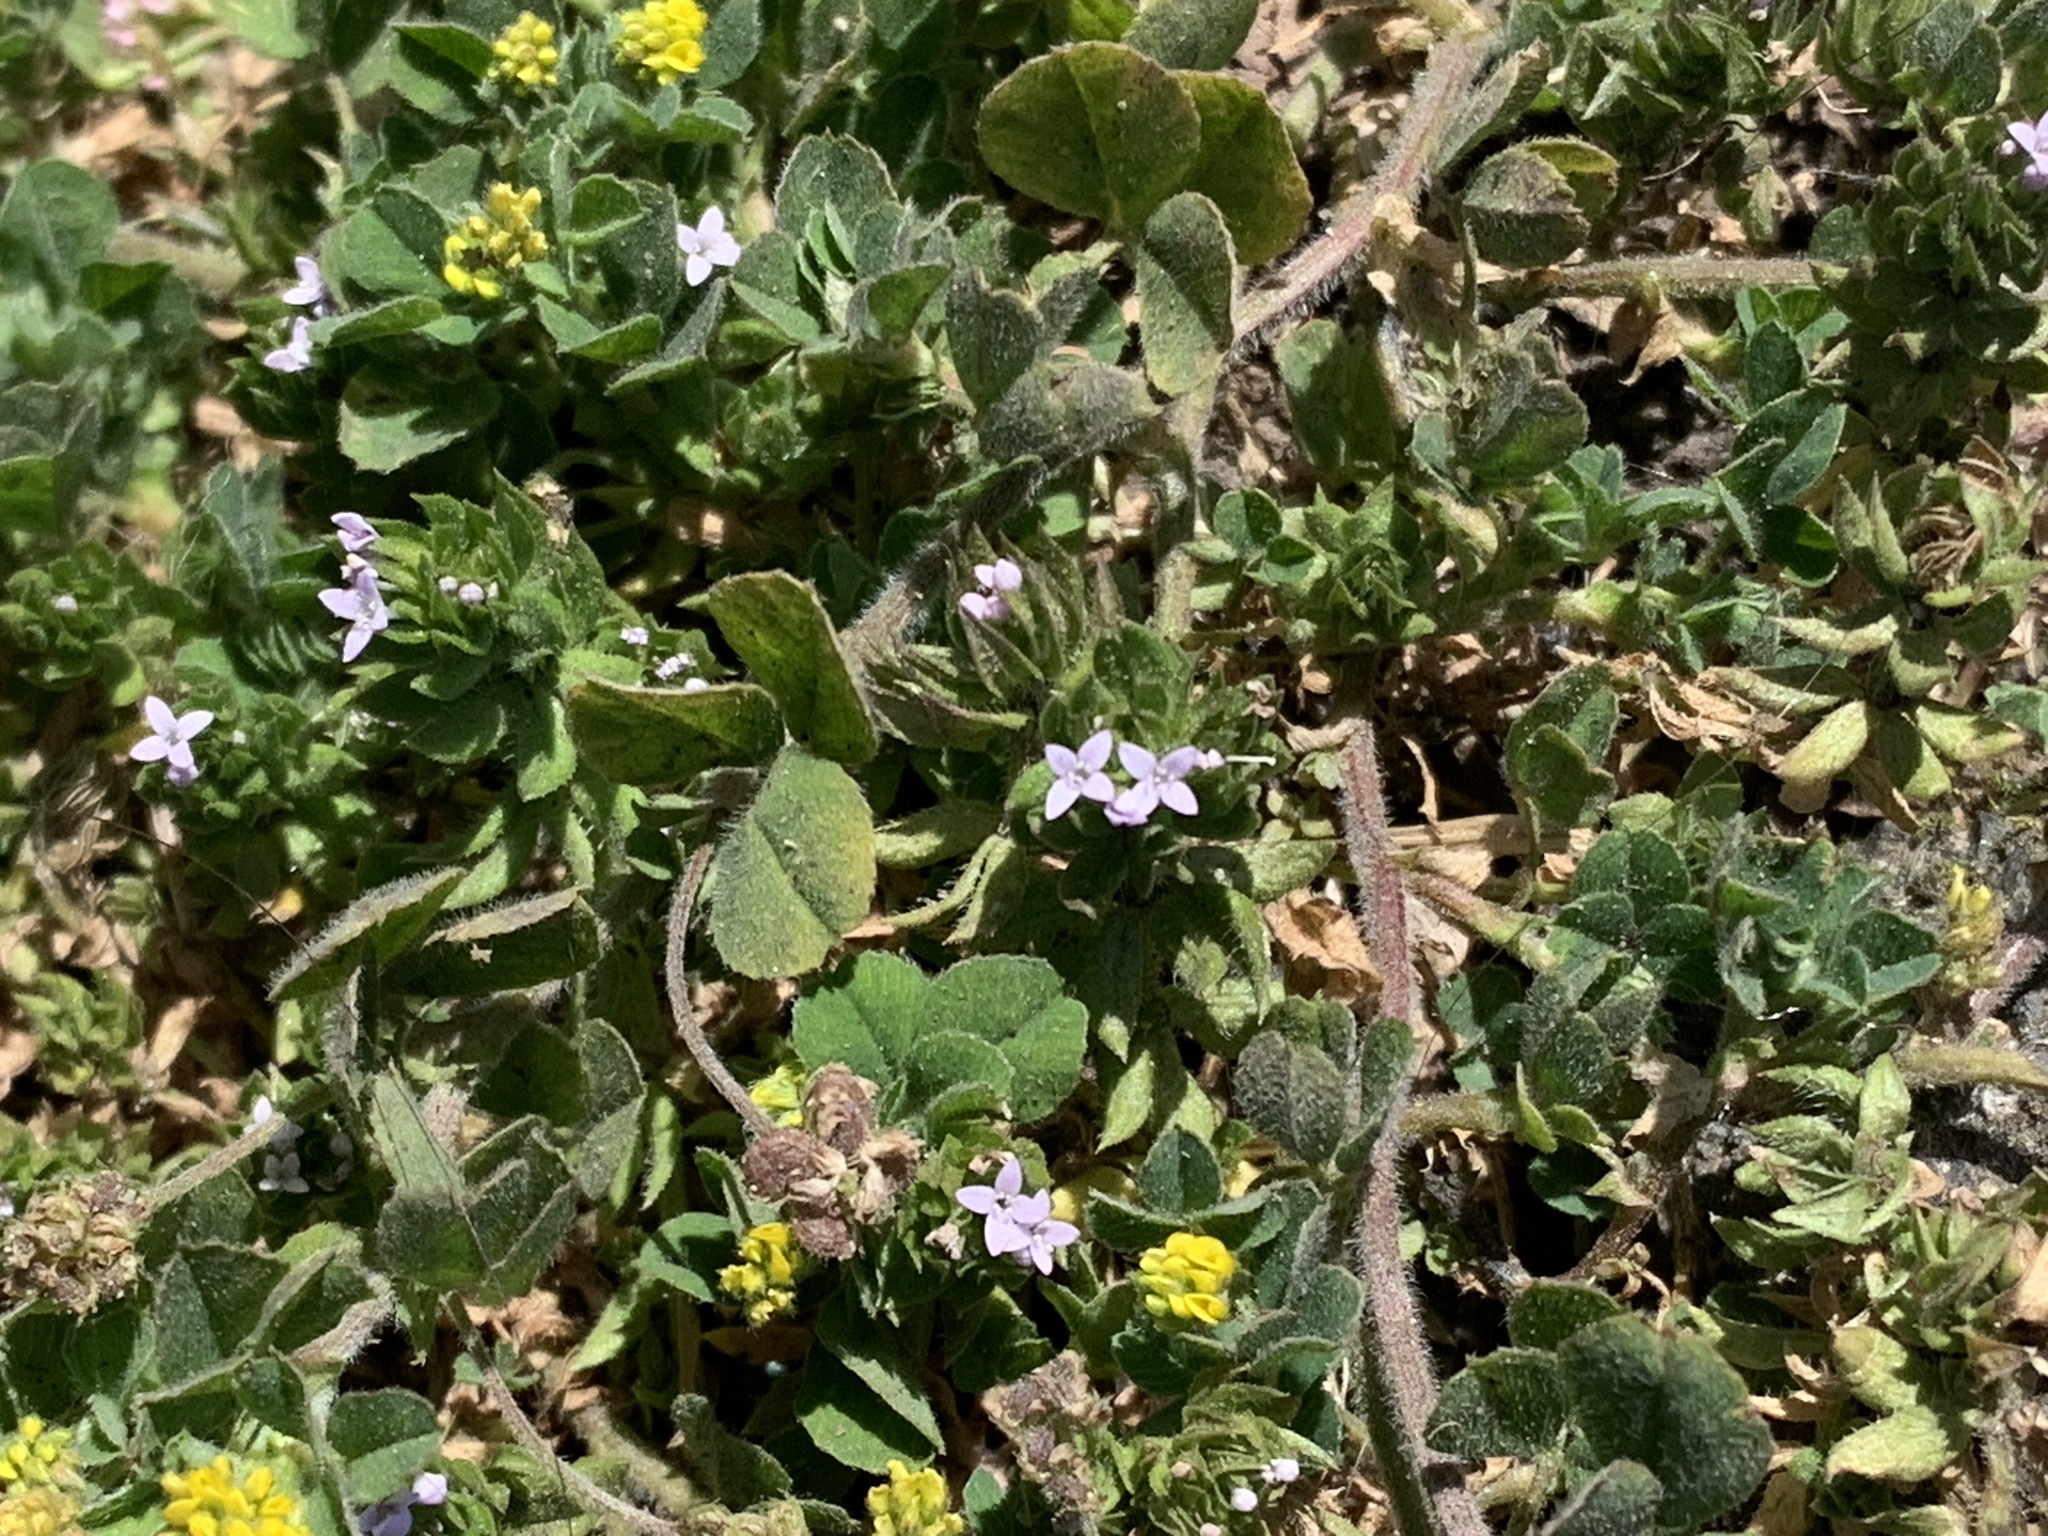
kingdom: Plantae
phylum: Tracheophyta
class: Magnoliopsida
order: Gentianales
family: Rubiaceae
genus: Oldenlandia
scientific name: Oldenlandia salzmannii
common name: Salzmann's mille graines
